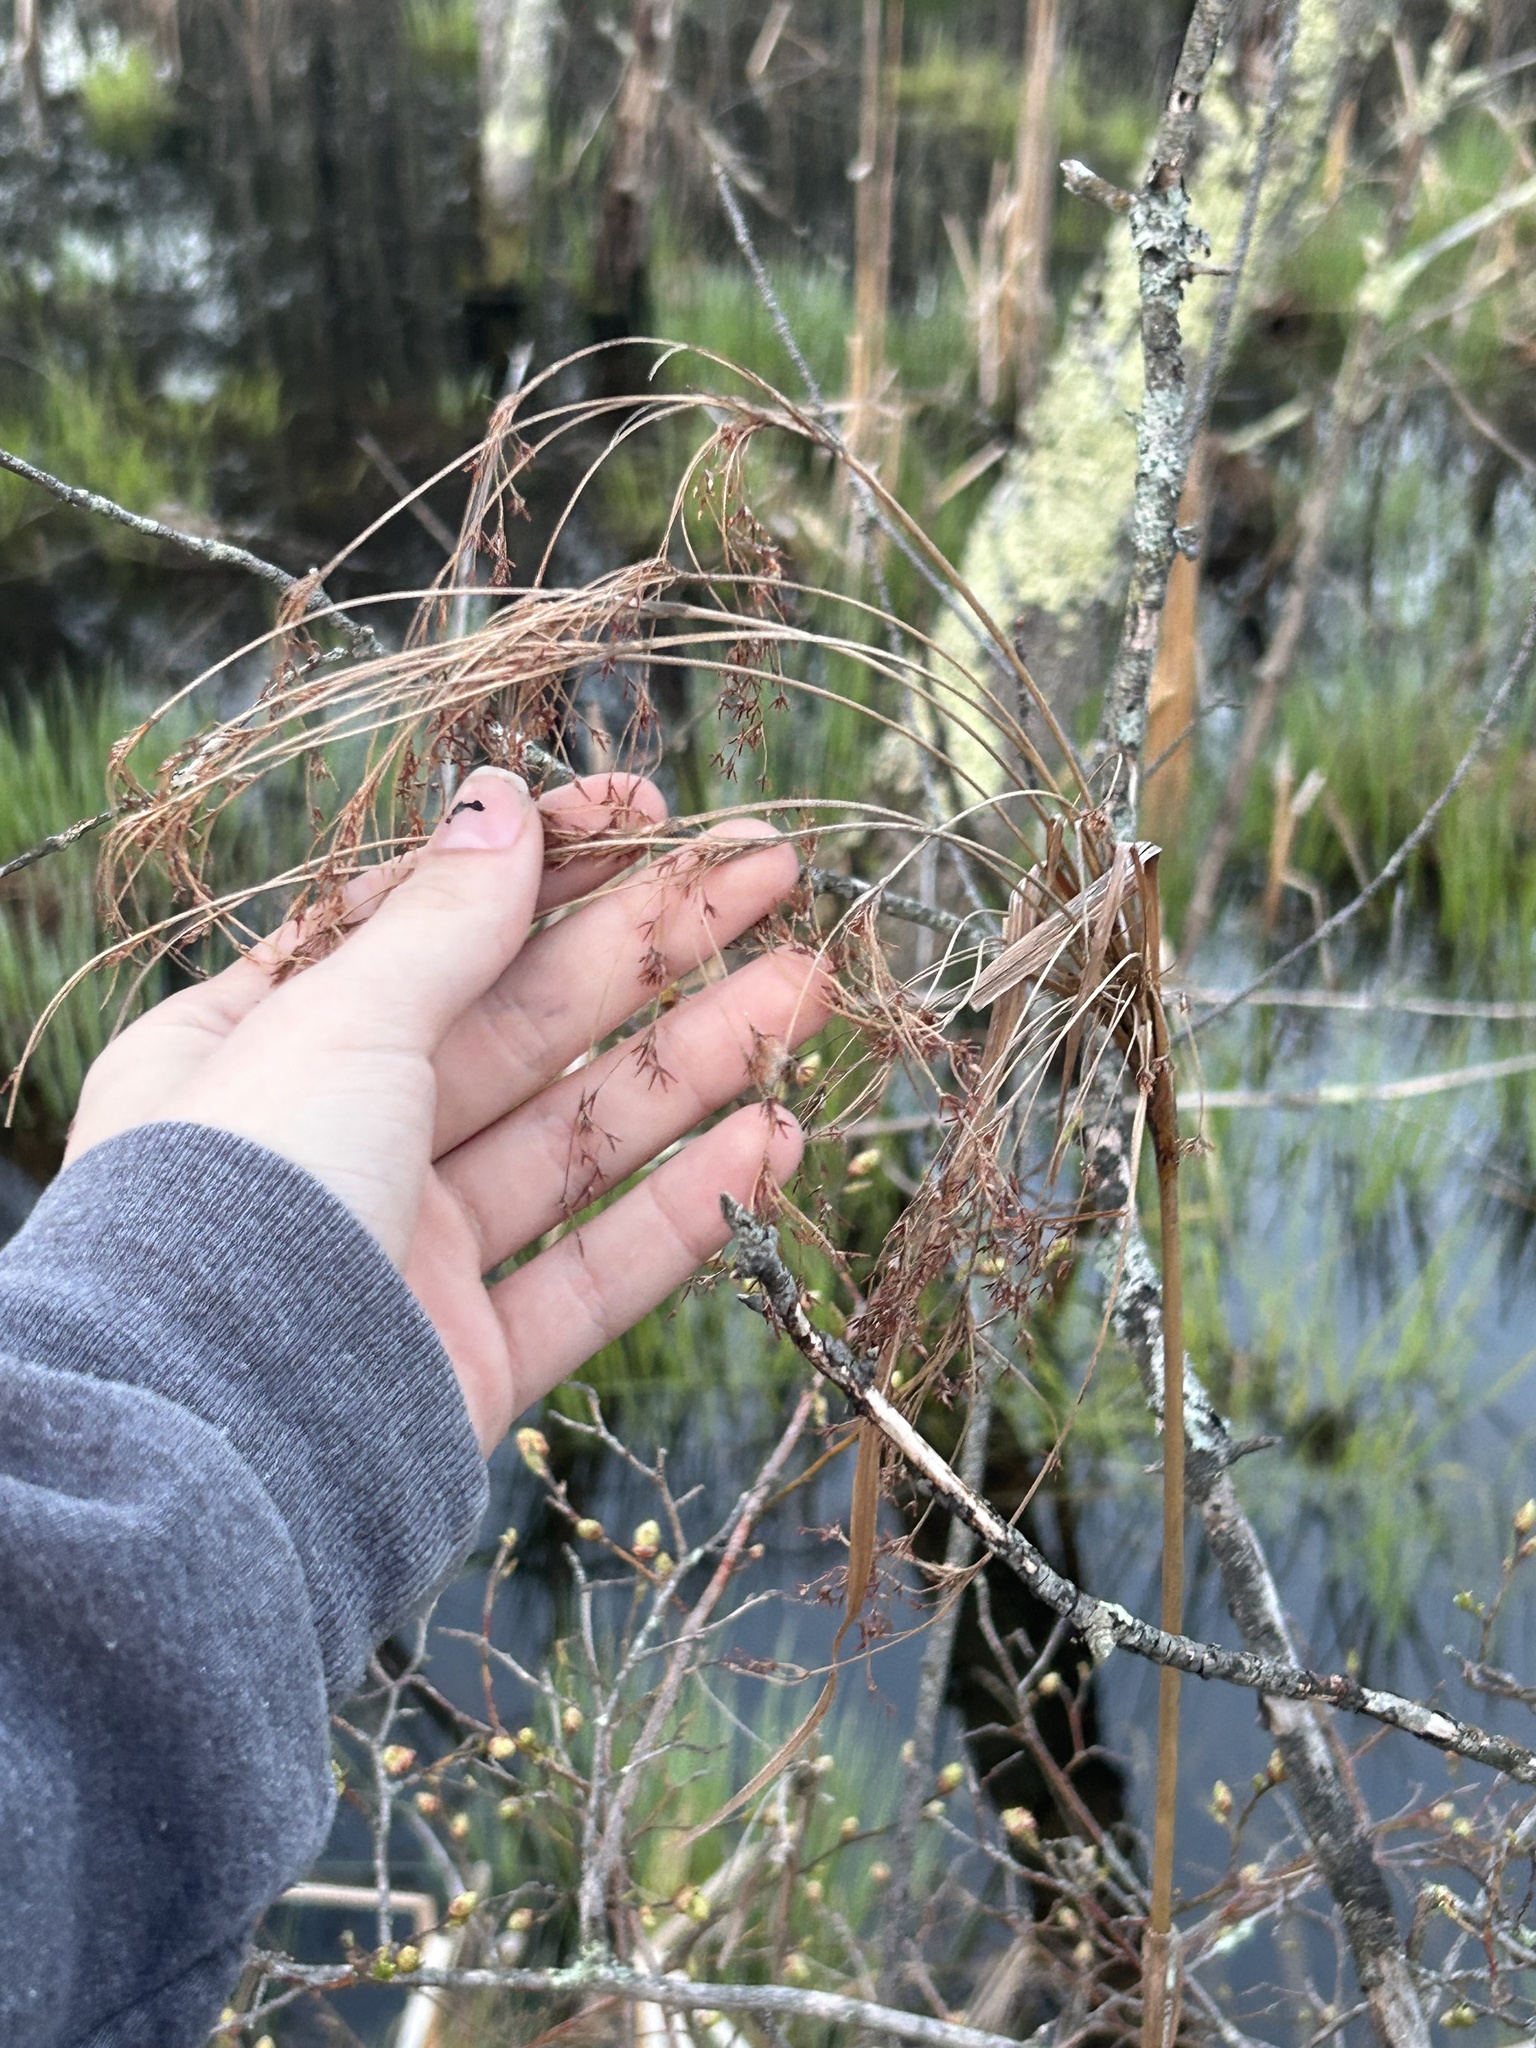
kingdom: Plantae
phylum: Tracheophyta
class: Liliopsida
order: Poales
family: Cyperaceae
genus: Scirpus
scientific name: Scirpus cyperinus
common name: Black-sheathed bulrush
